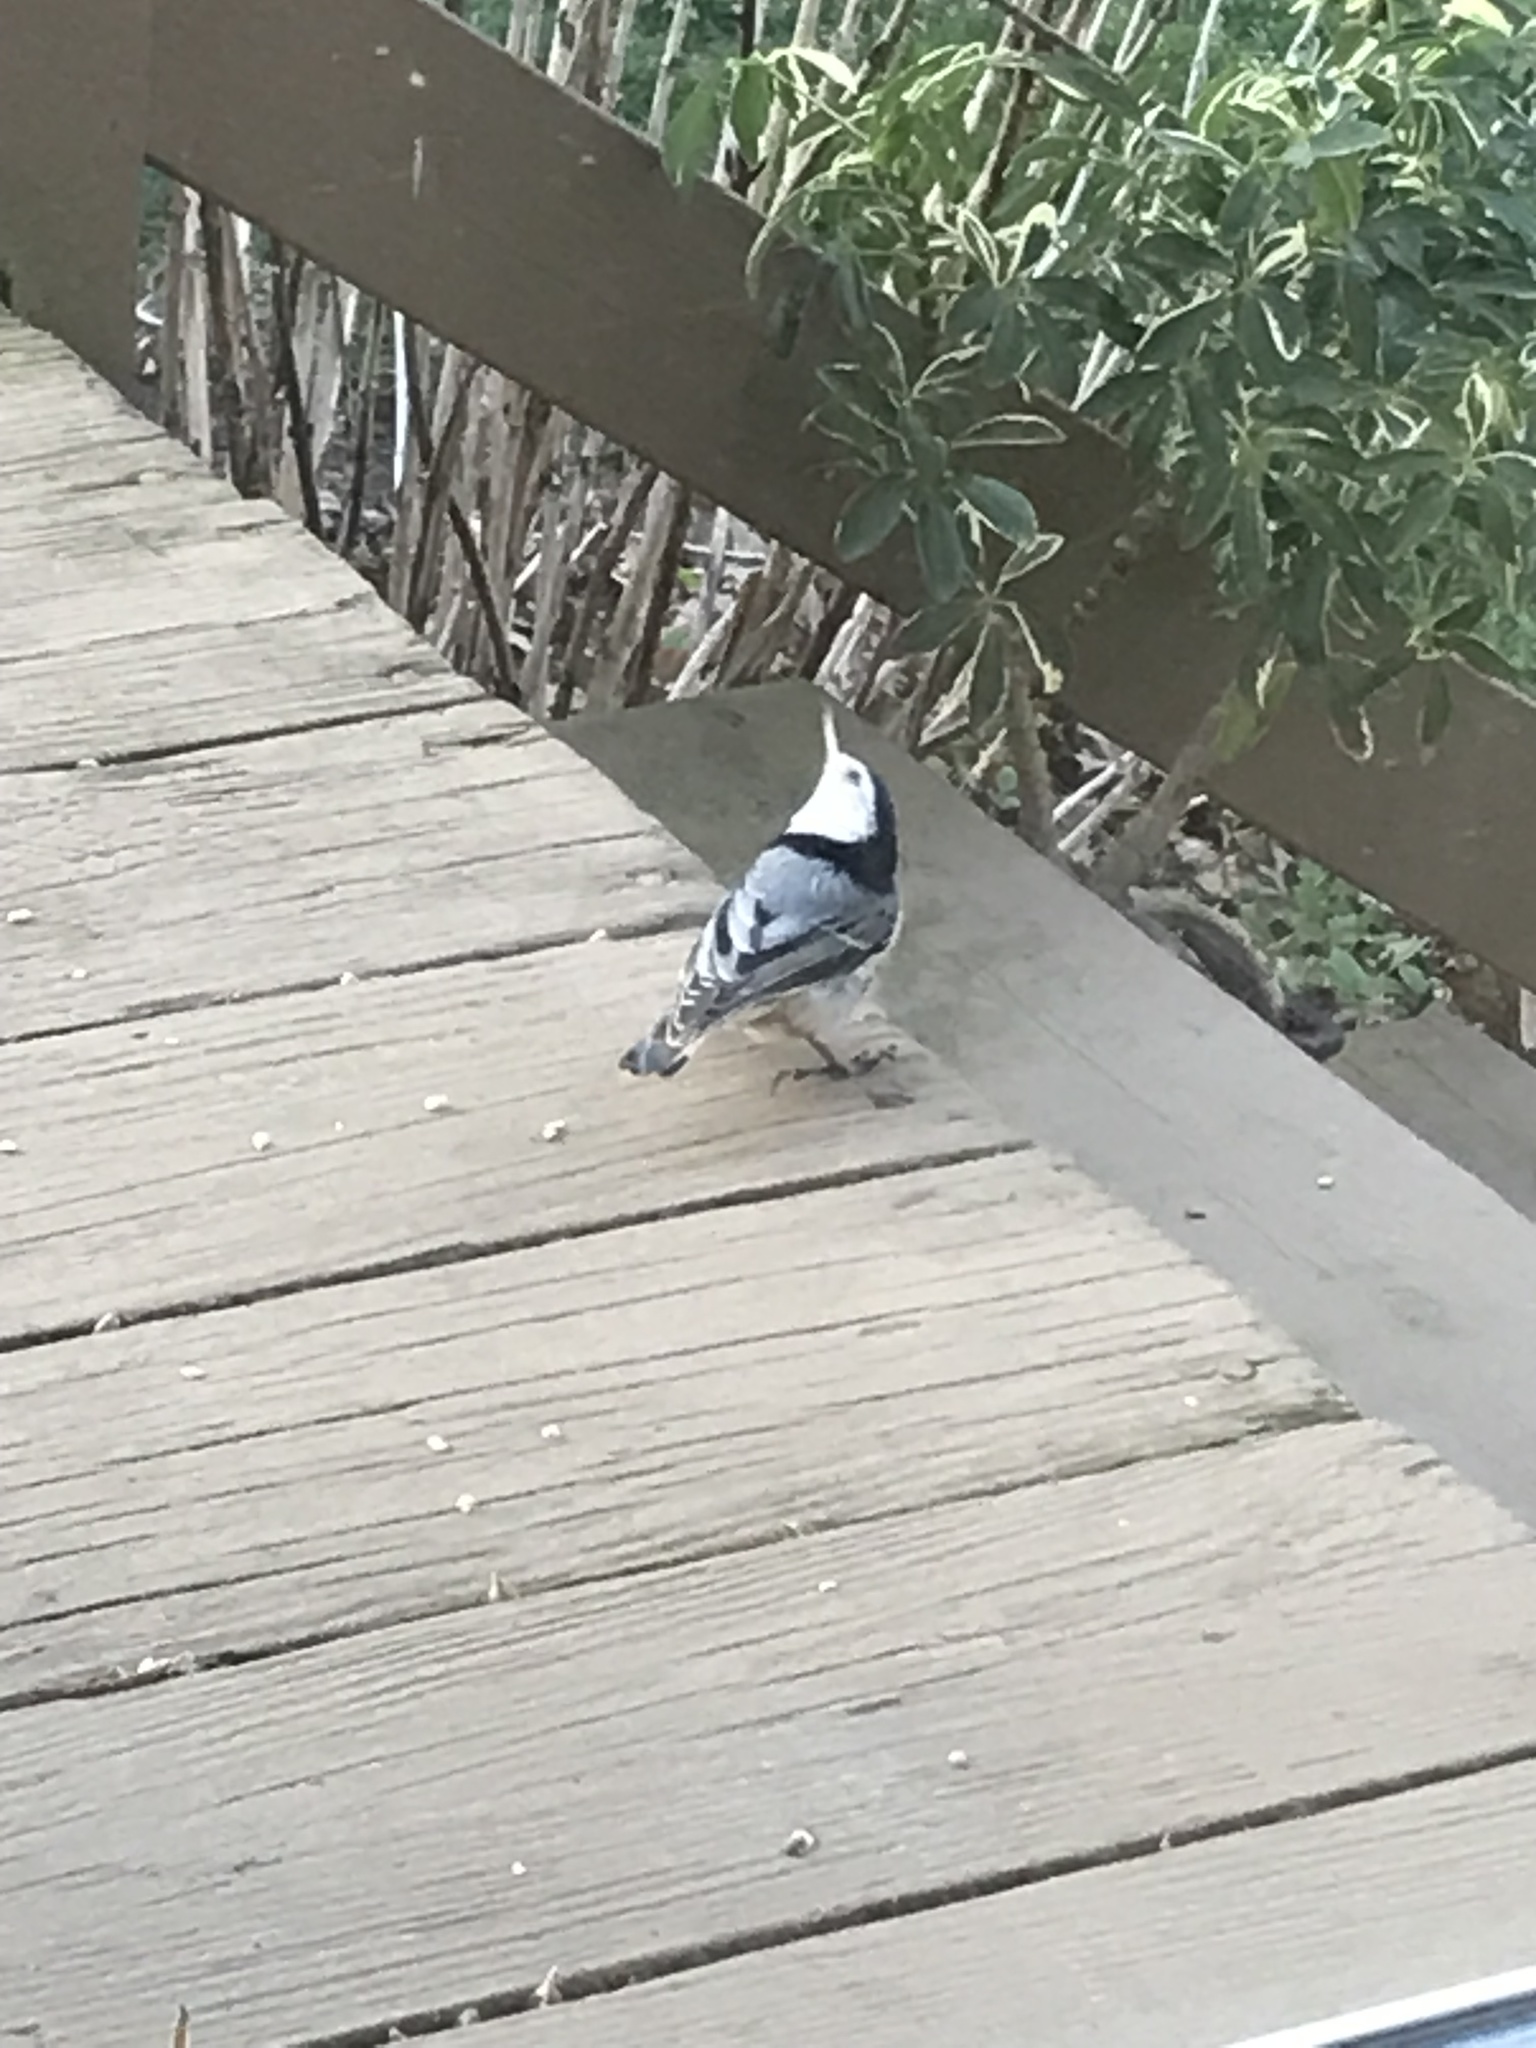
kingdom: Animalia
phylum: Chordata
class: Aves
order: Passeriformes
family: Sittidae
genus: Sitta
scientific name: Sitta carolinensis
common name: White-breasted nuthatch
